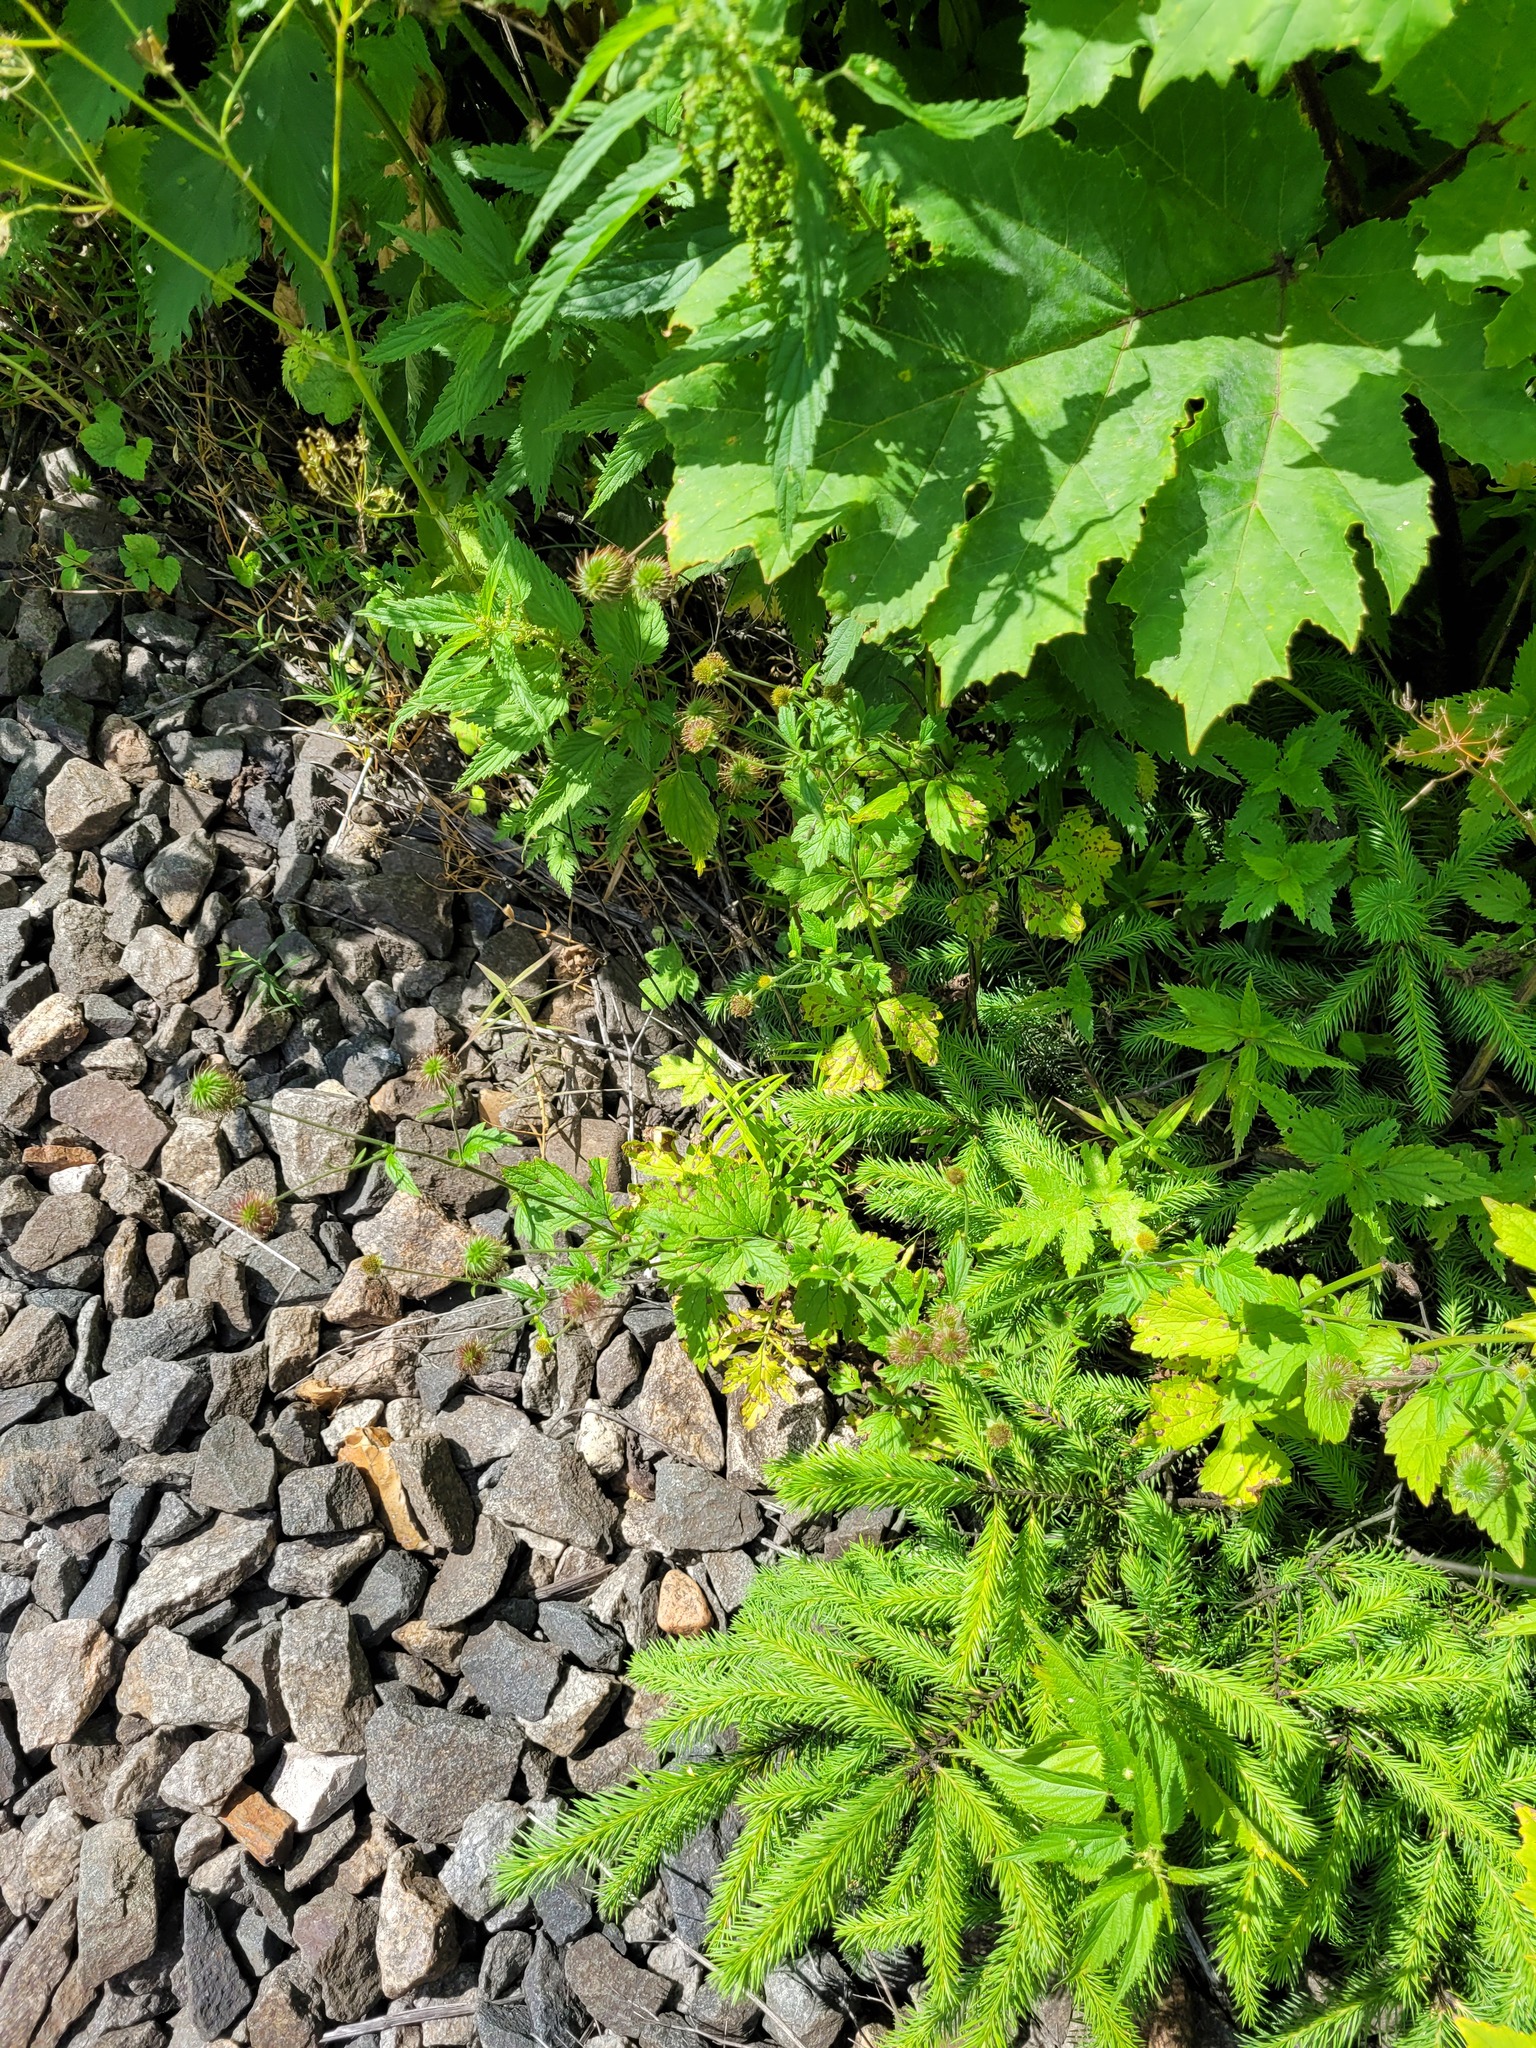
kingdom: Plantae
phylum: Tracheophyta
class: Magnoliopsida
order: Rosales
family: Rosaceae
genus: Geum
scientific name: Geum urbanum
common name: Wood avens
